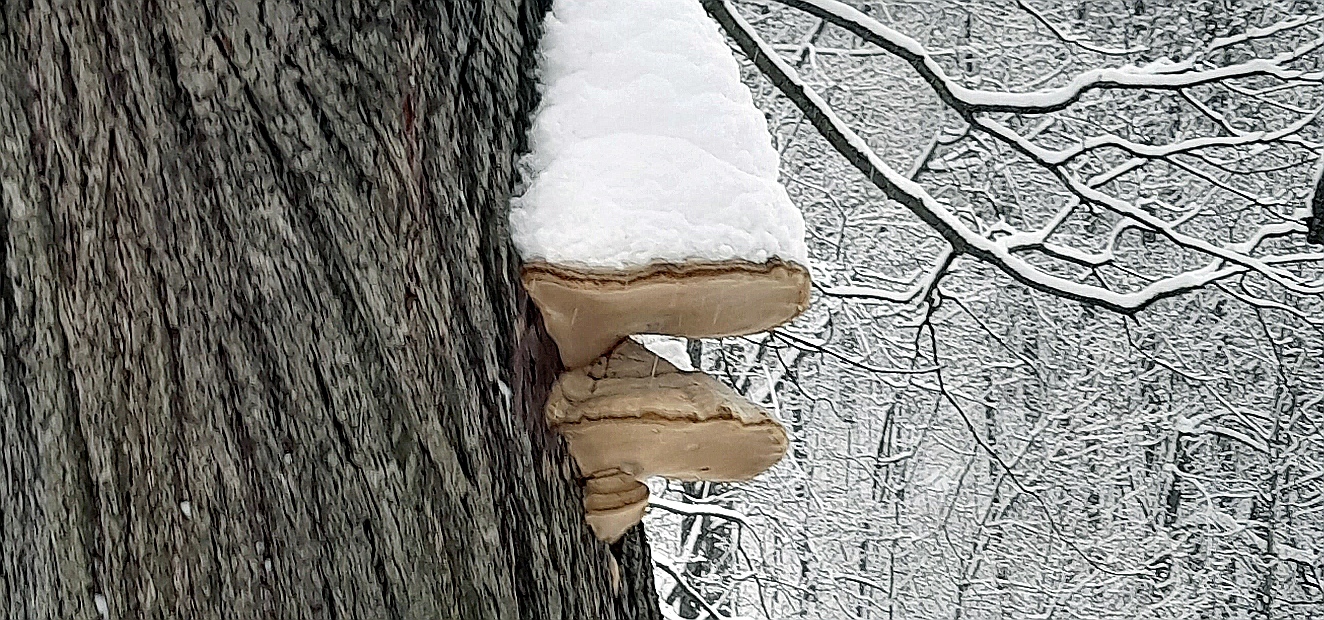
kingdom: Fungi
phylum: Basidiomycota
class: Agaricomycetes
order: Polyporales
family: Polyporaceae
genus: Fomes
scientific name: Fomes fomentarius
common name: Hoof fungus
